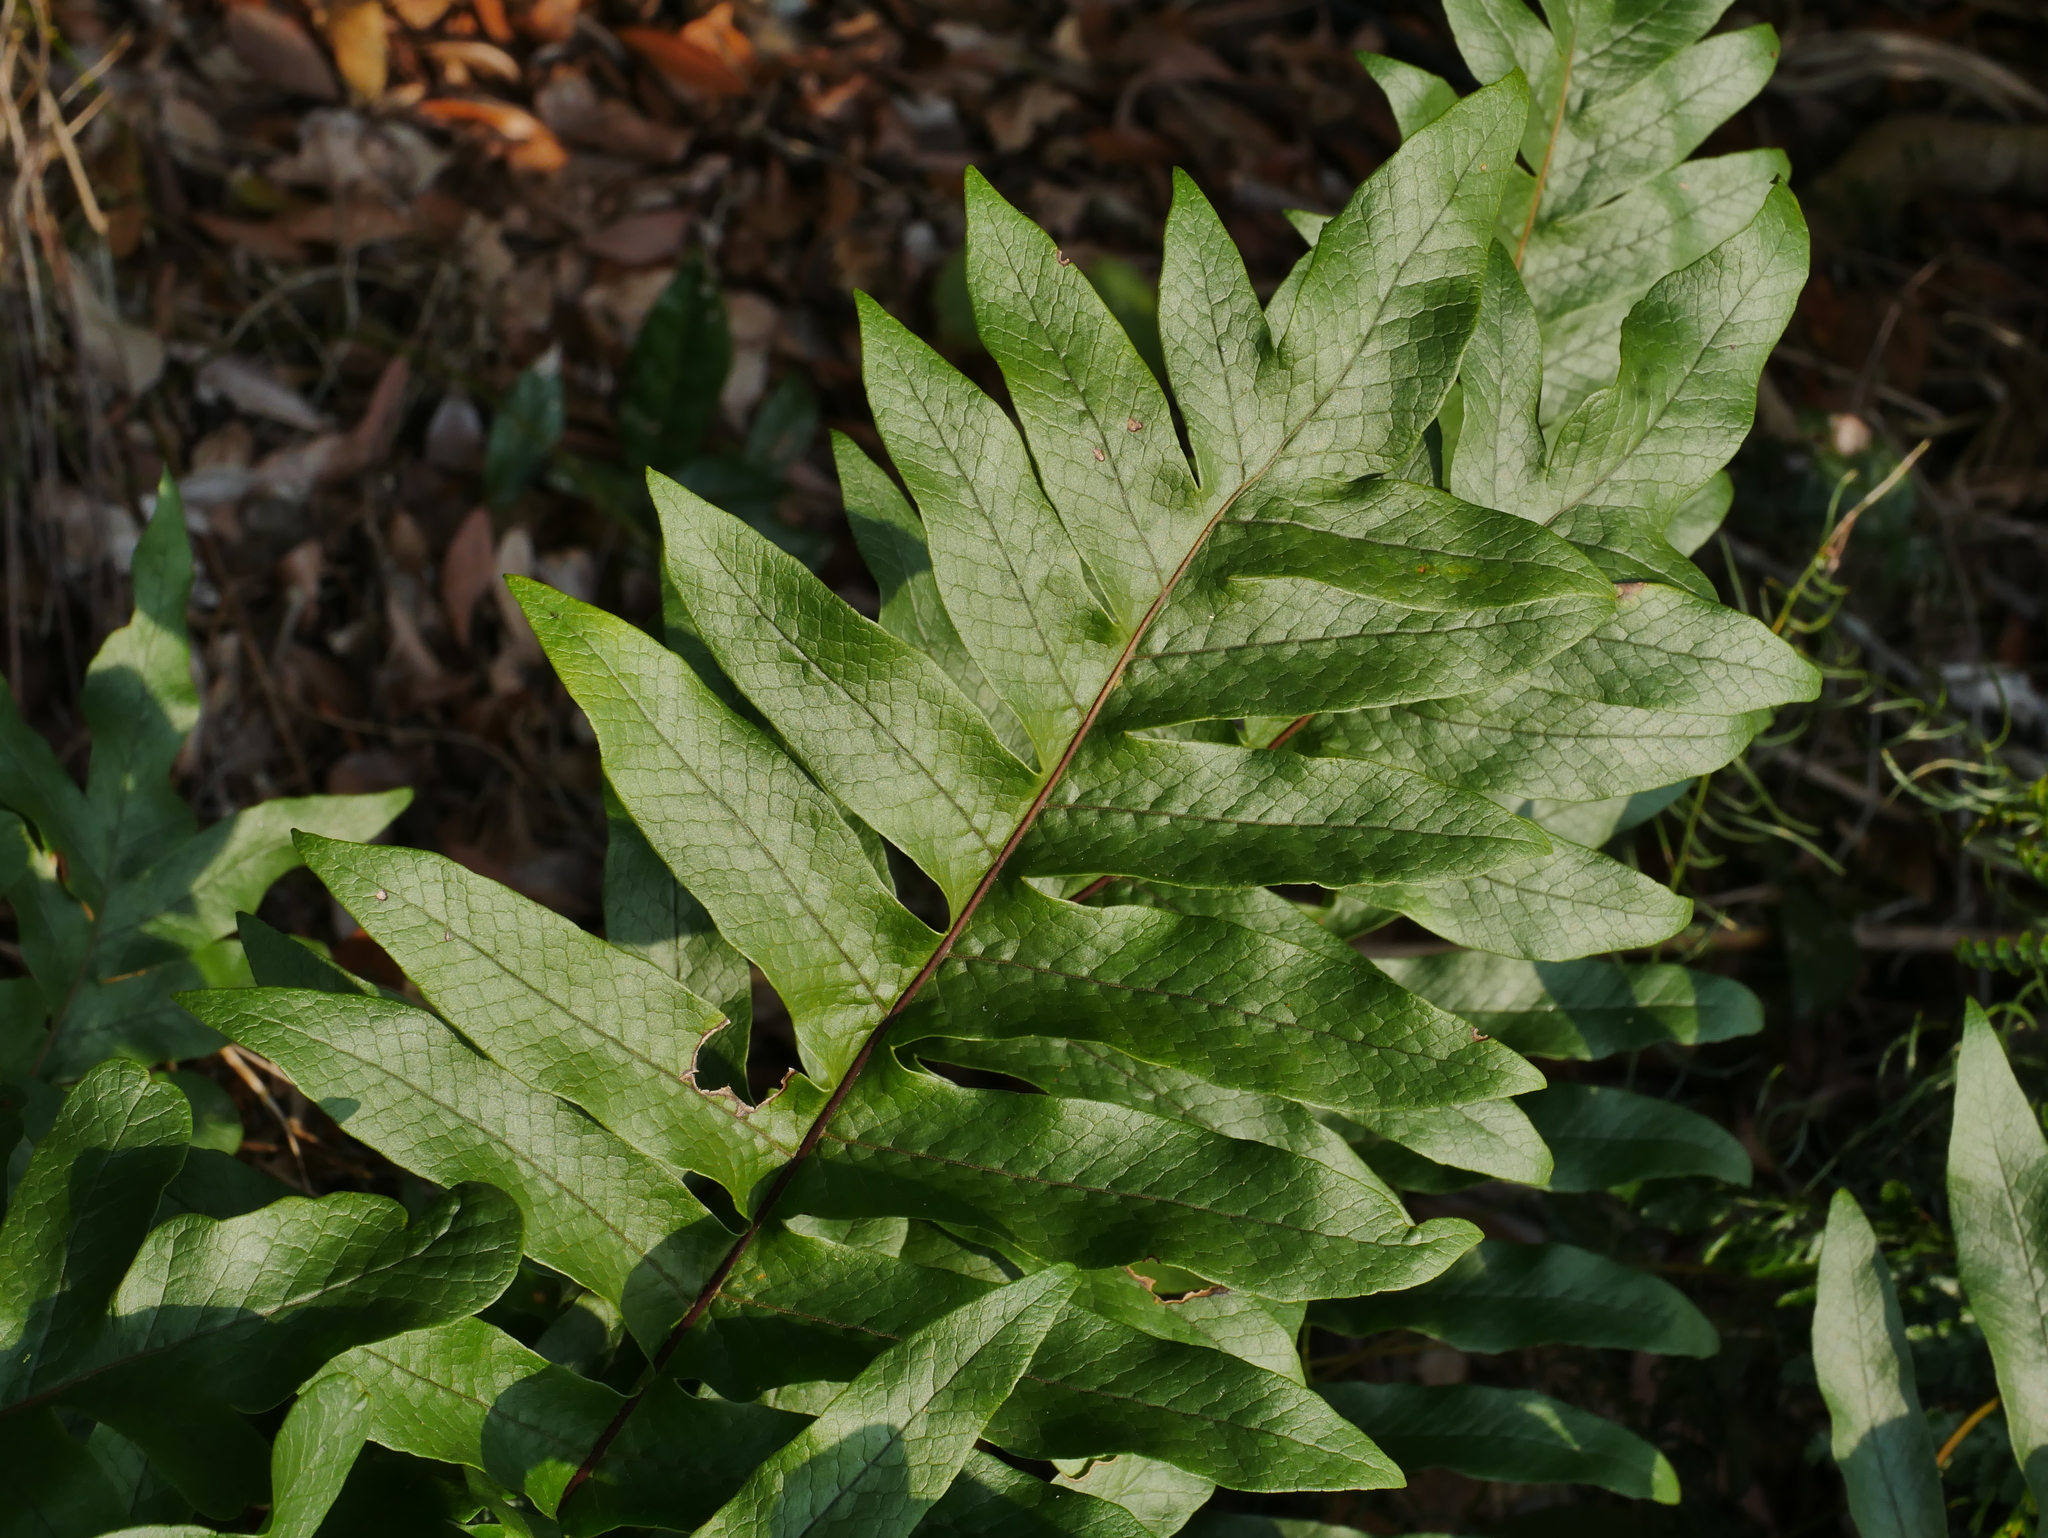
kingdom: Plantae
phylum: Tracheophyta
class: Polypodiopsida
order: Polypodiales
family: Polypodiaceae
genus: Drynaria
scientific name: Drynaria roosii
